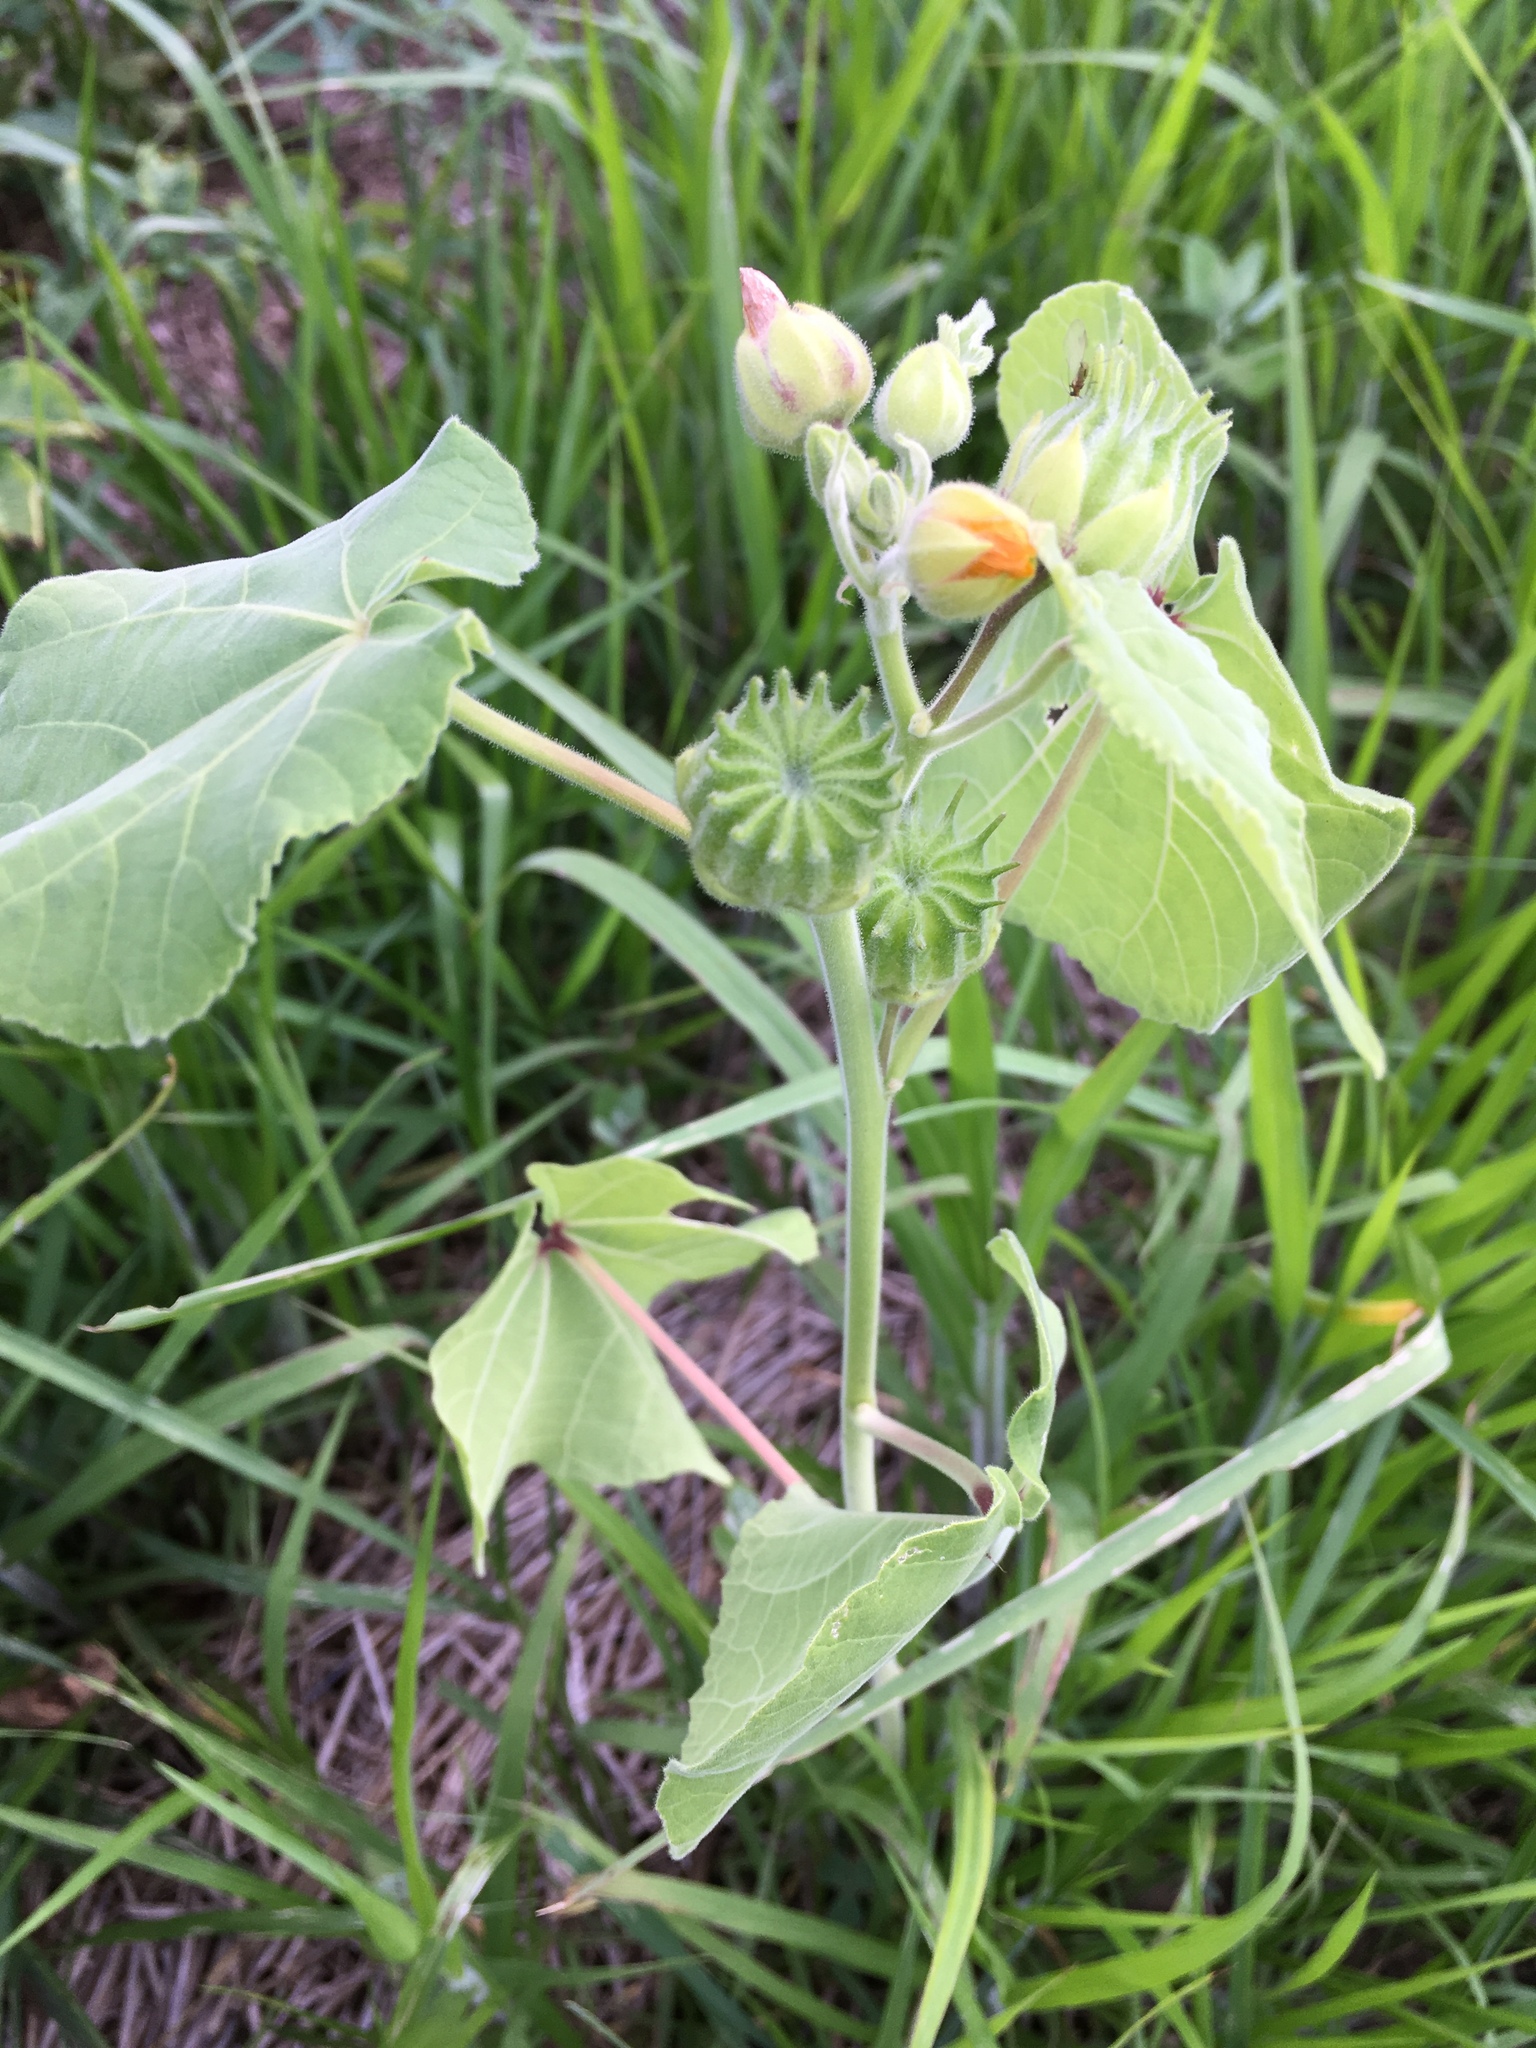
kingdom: Plantae
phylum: Tracheophyta
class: Magnoliopsida
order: Malvales
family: Malvaceae
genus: Abutilon
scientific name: Abutilon theophrasti
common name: Velvetleaf
